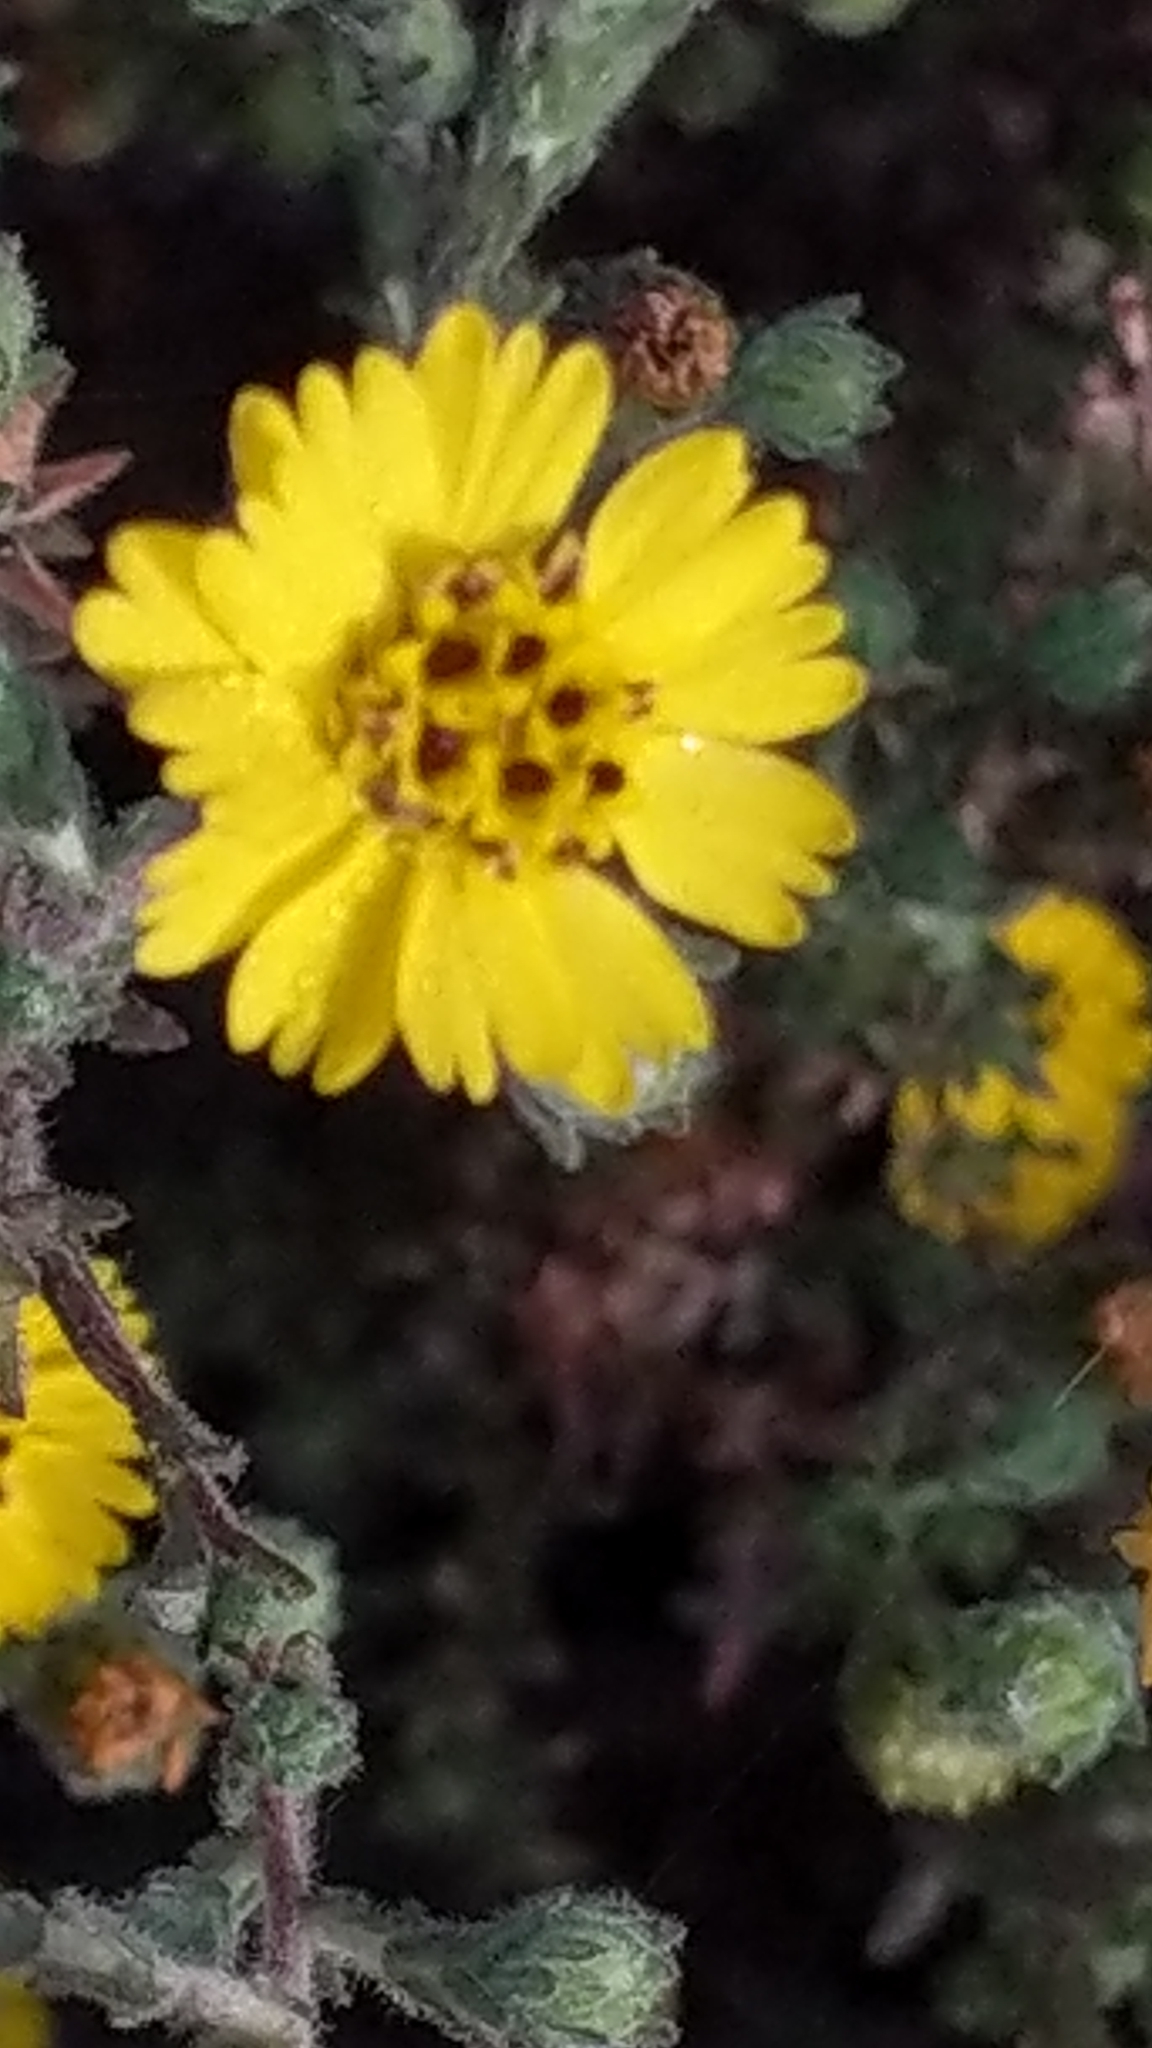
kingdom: Plantae
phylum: Tracheophyta
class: Magnoliopsida
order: Asterales
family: Asteraceae
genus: Deinandra
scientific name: Deinandra increscens
